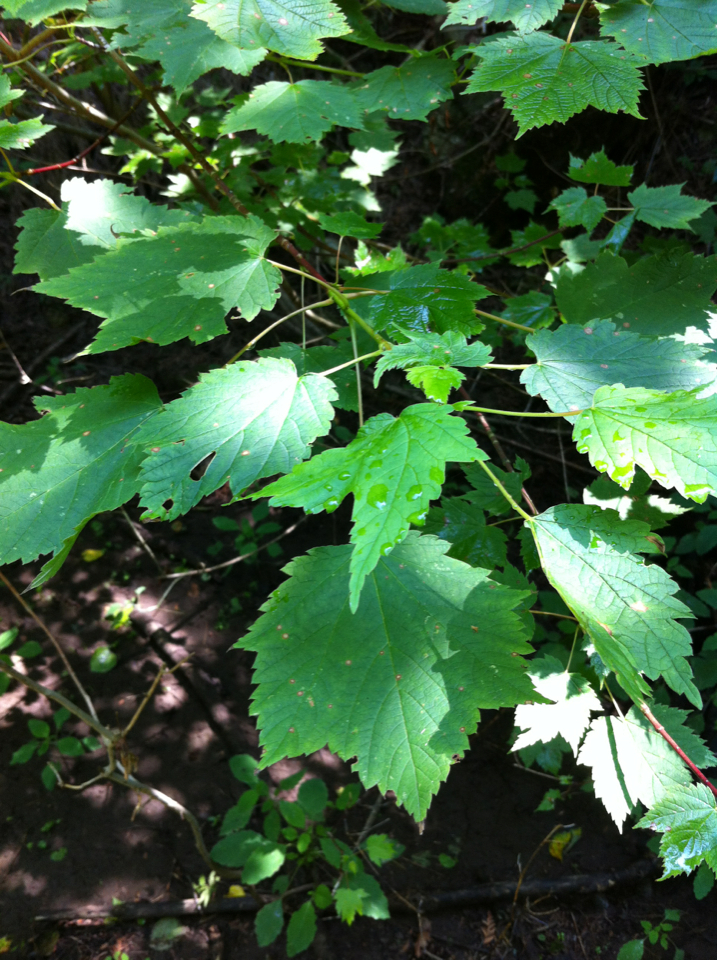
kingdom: Plantae
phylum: Tracheophyta
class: Magnoliopsida
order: Sapindales
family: Sapindaceae
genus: Acer
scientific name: Acer spicatum
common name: Mountain maple
